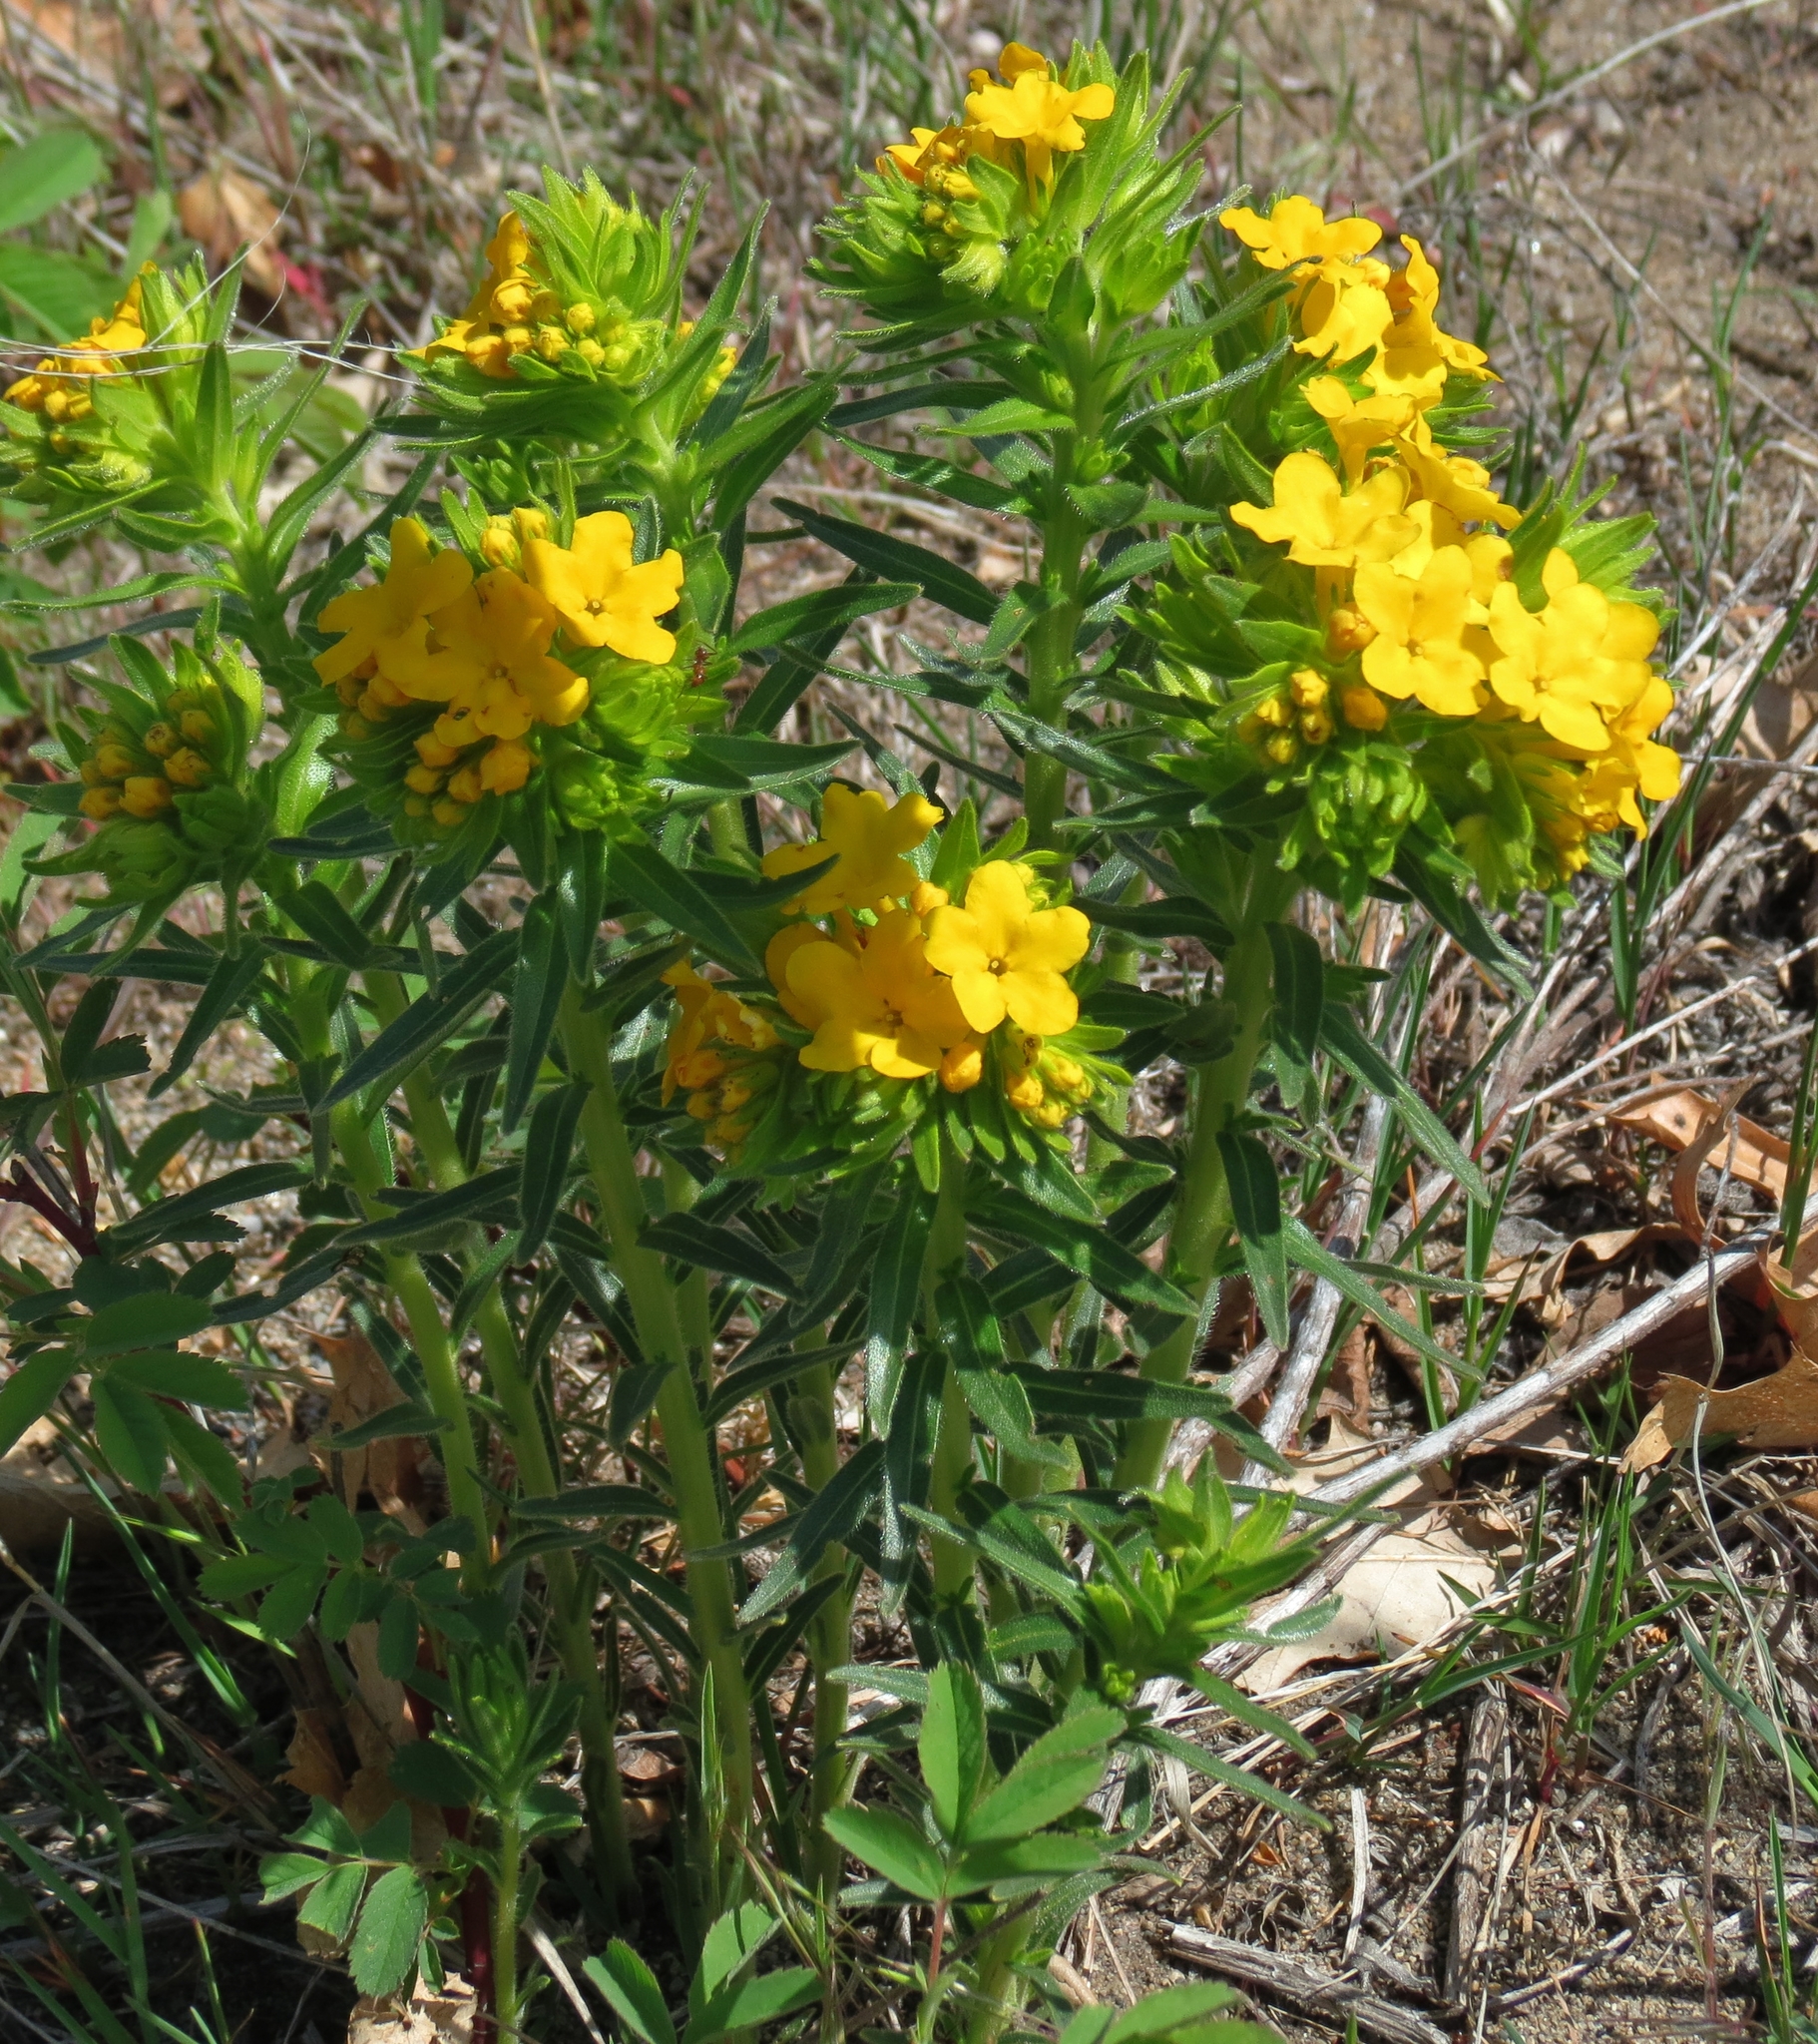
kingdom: Plantae
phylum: Tracheophyta
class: Magnoliopsida
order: Boraginales
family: Boraginaceae
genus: Lithospermum
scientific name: Lithospermum caroliniense
